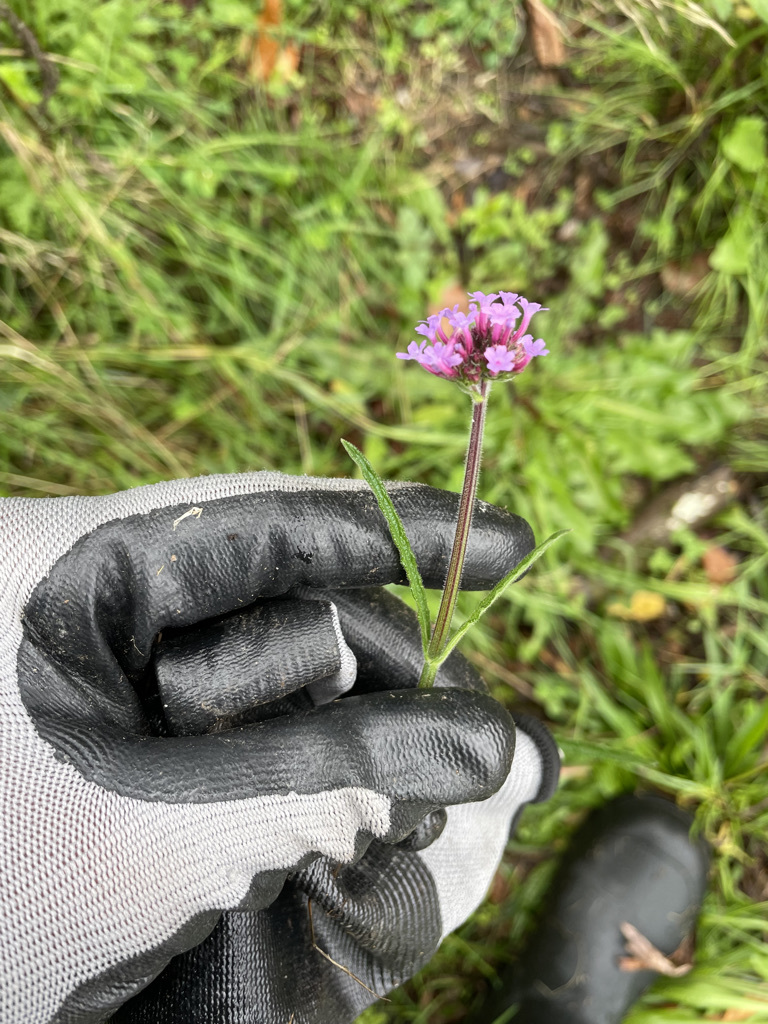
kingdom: Plantae
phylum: Tracheophyta
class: Magnoliopsida
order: Lamiales
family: Verbenaceae
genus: Verbena
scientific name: Verbena bonariensis
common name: Purpletop vervain
